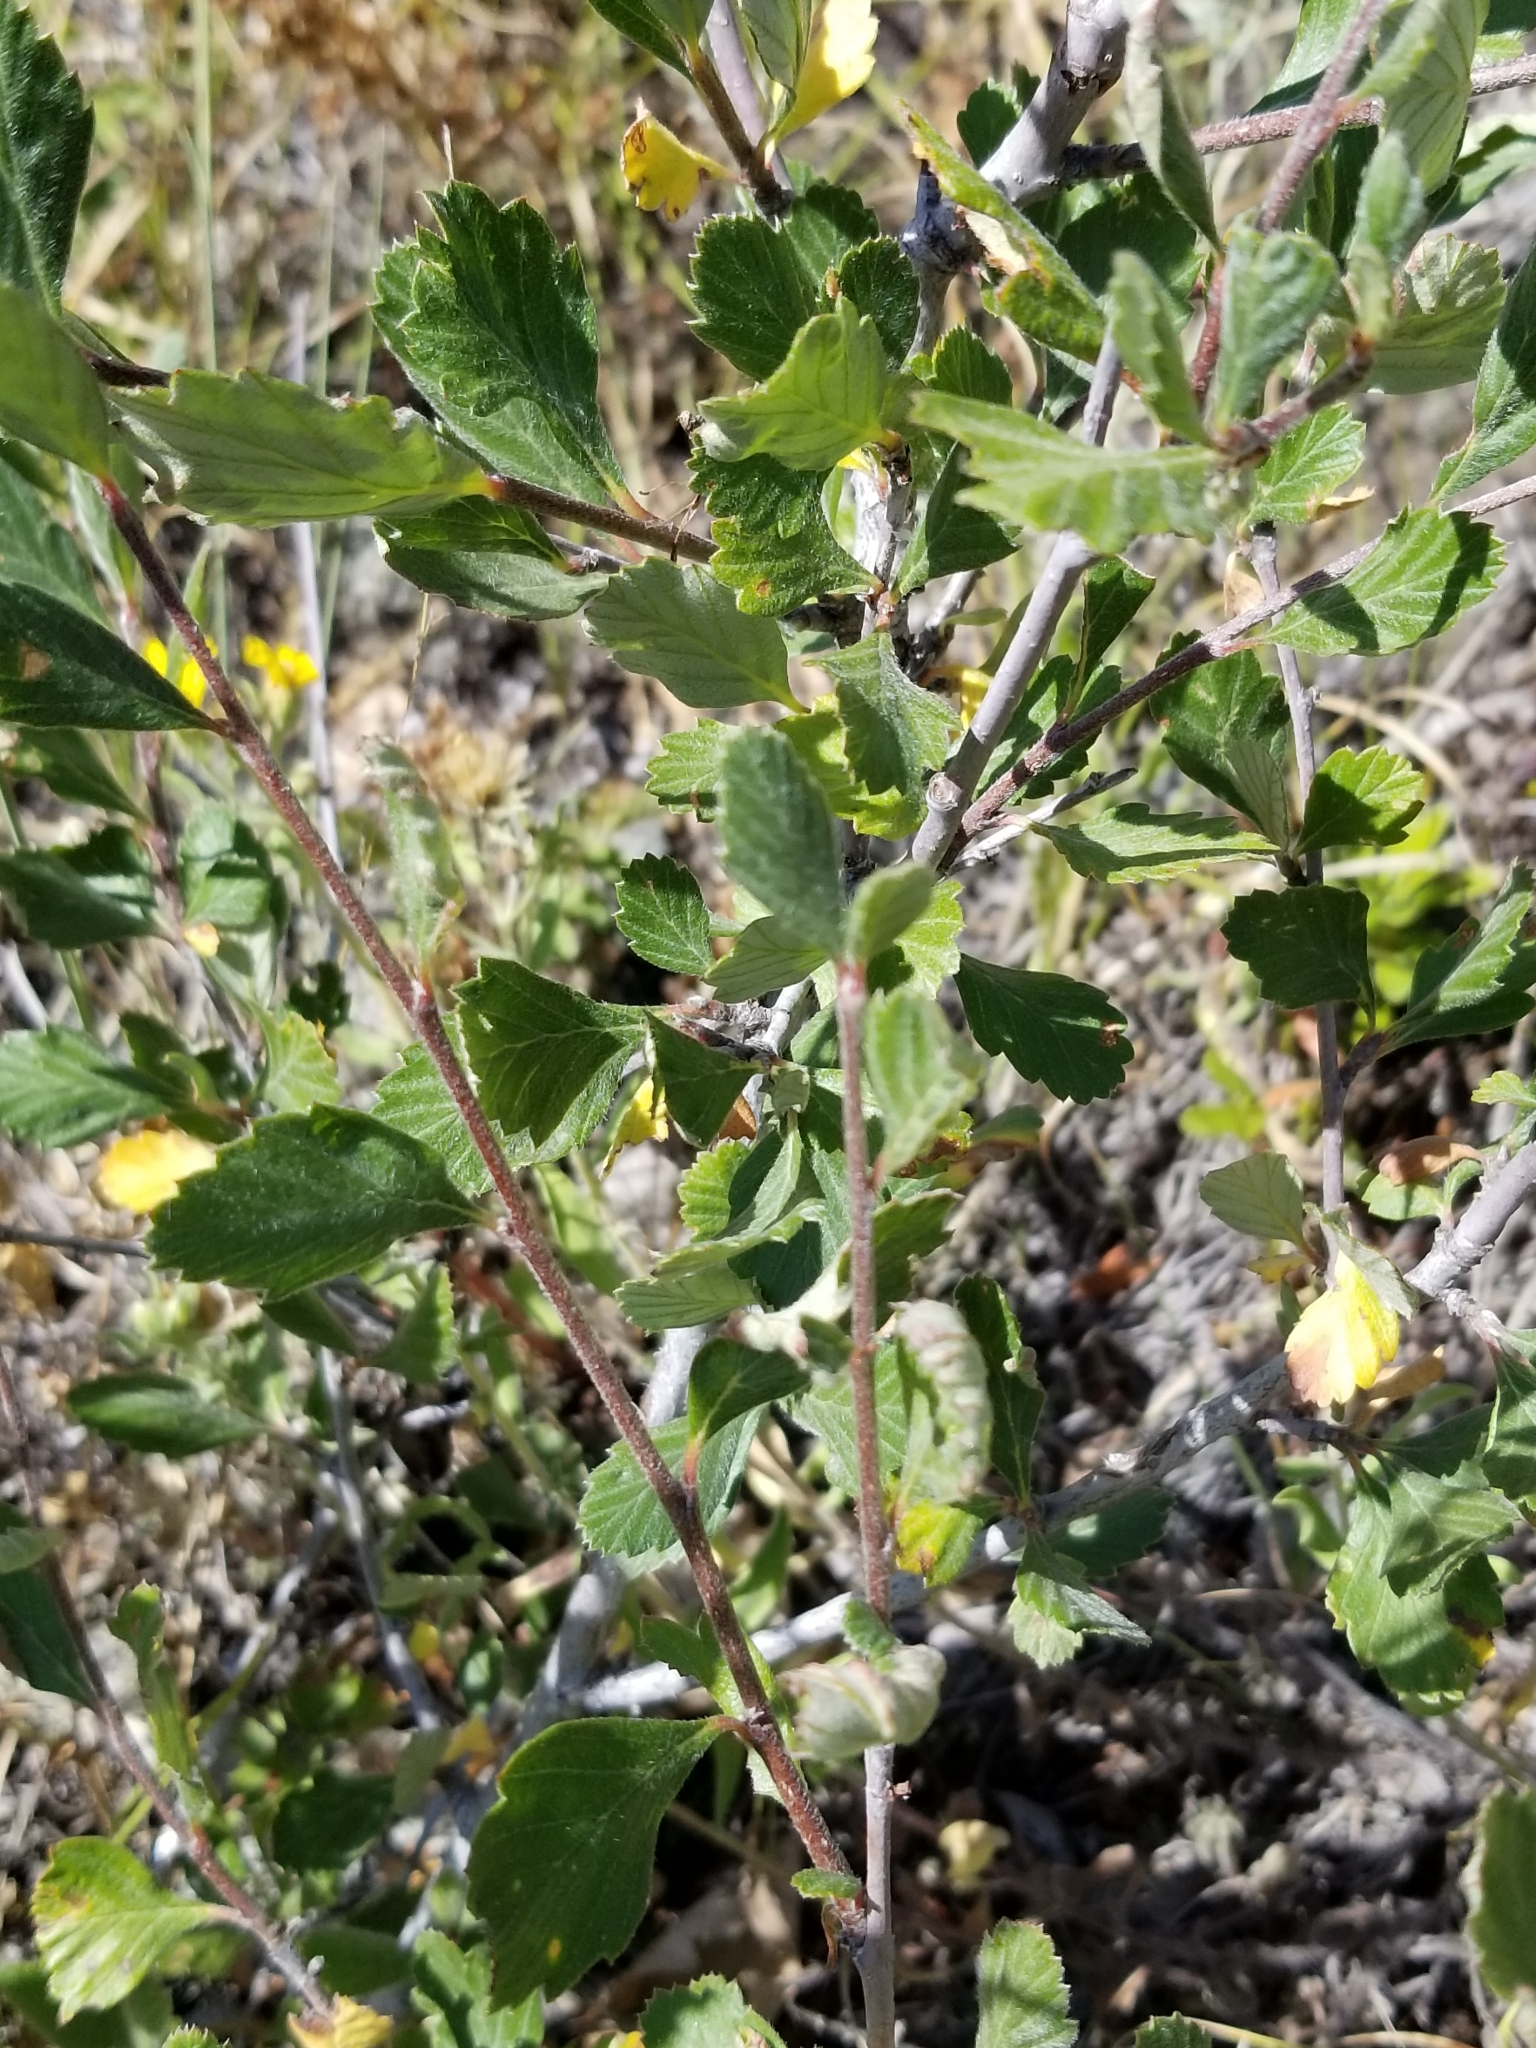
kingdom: Plantae
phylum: Tracheophyta
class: Magnoliopsida
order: Rosales
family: Rosaceae
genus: Cercocarpus
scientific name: Cercocarpus montanus
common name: Alder-leaf cercocarpus
